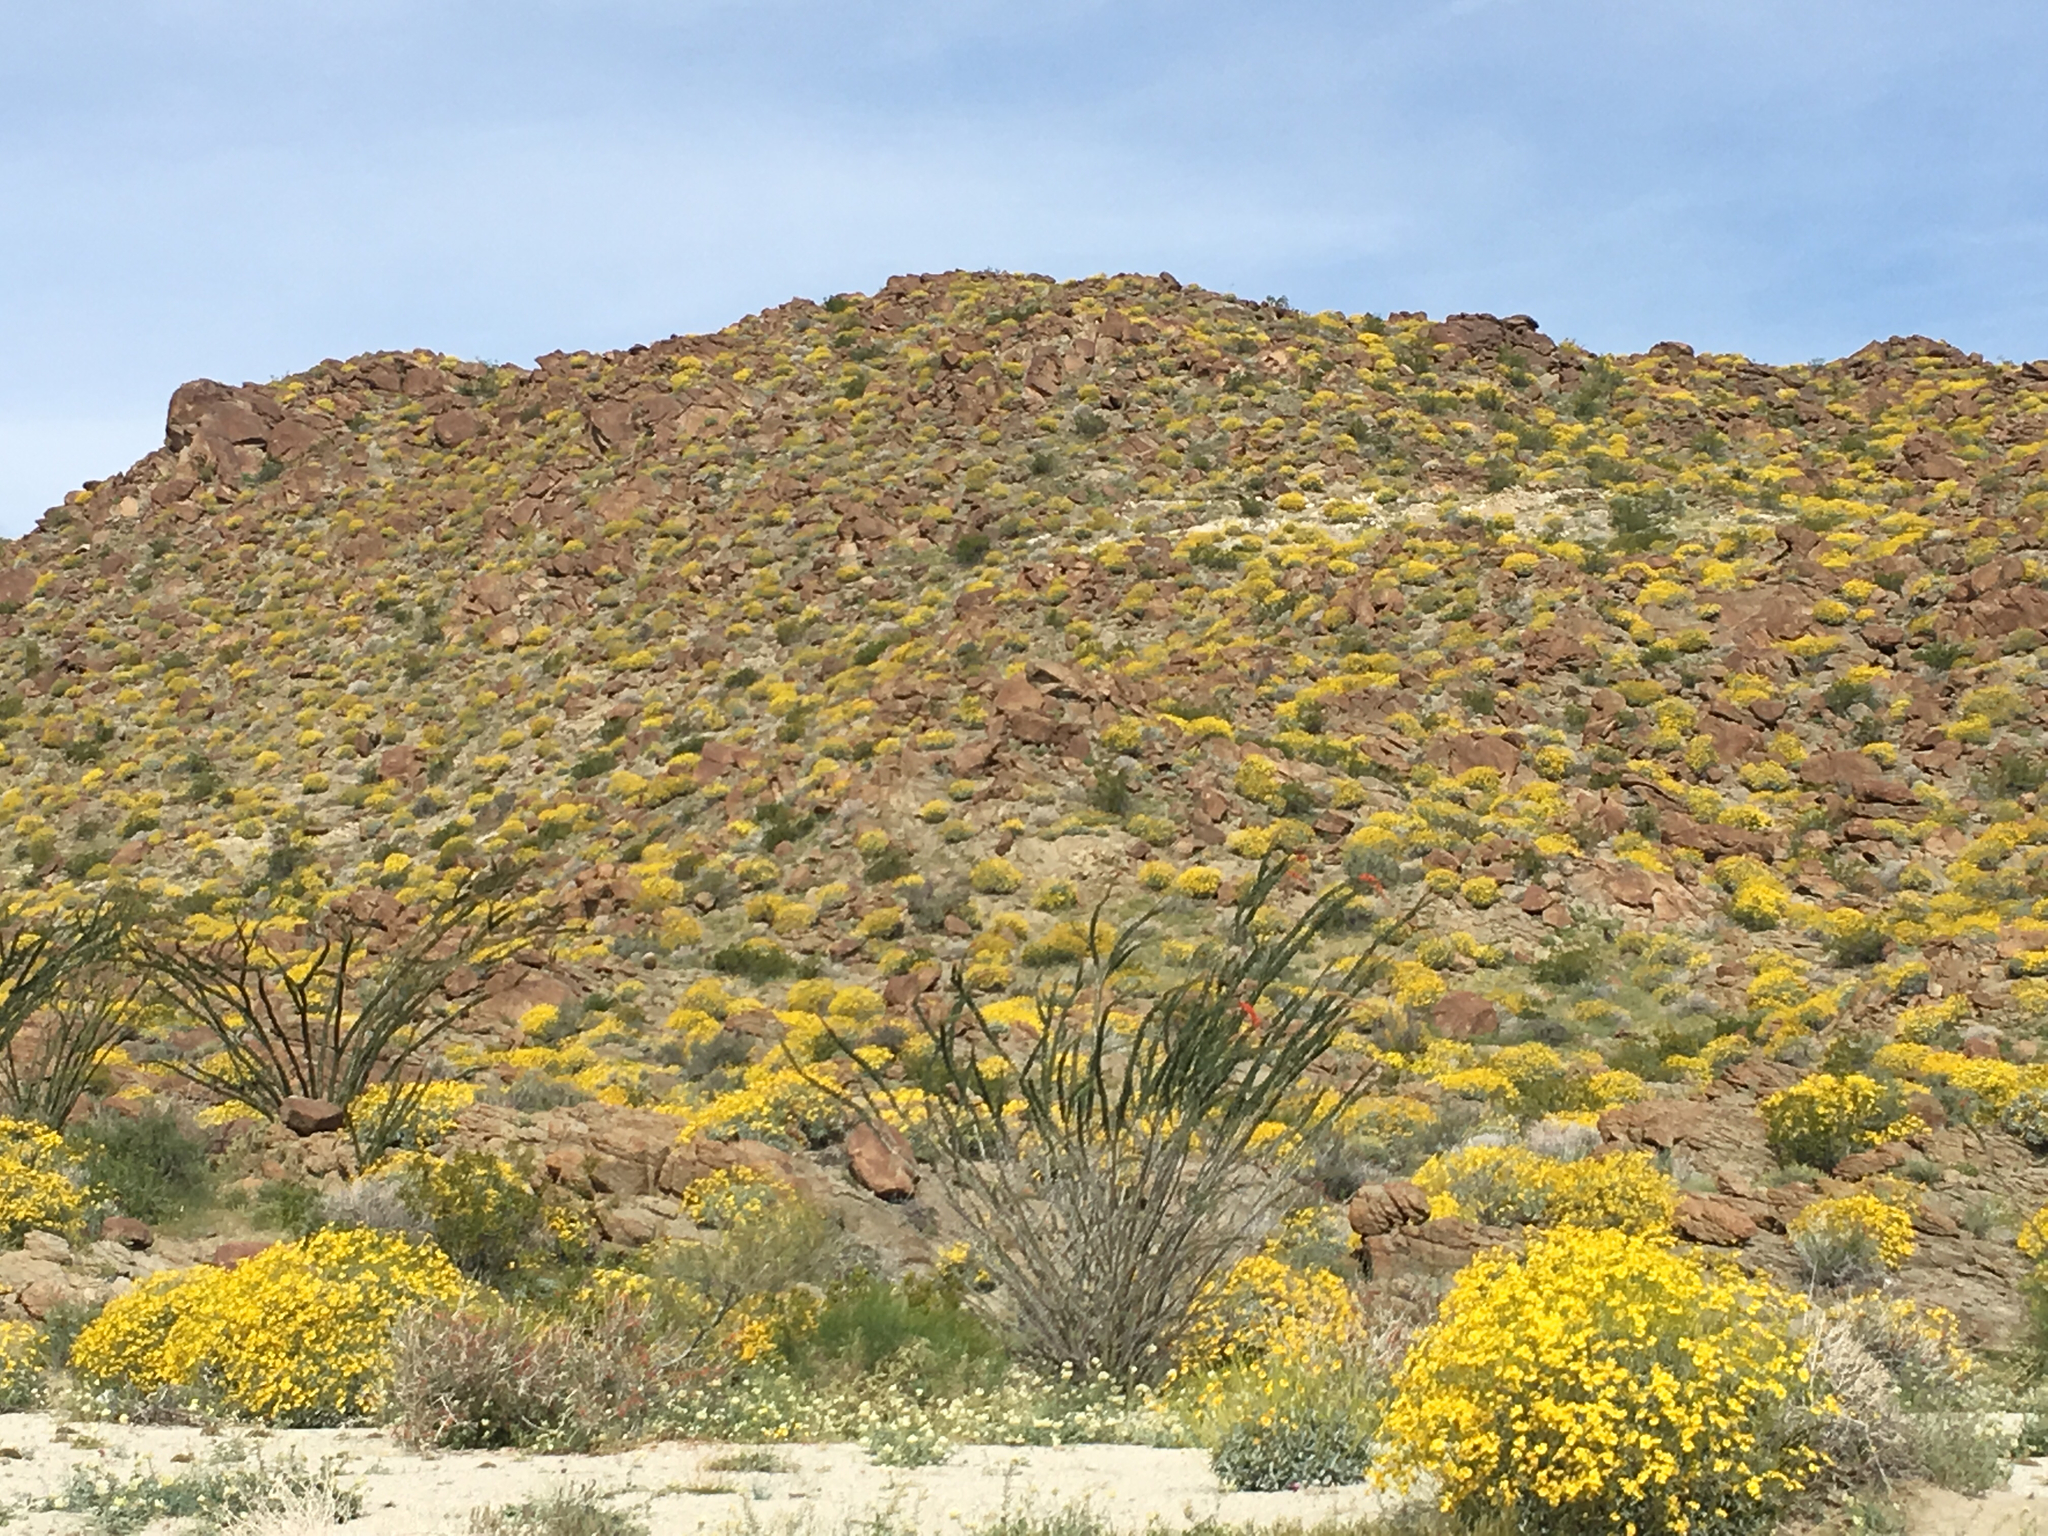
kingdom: Plantae
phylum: Tracheophyta
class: Magnoliopsida
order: Asterales
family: Asteraceae
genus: Encelia
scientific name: Encelia farinosa
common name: Brittlebush
